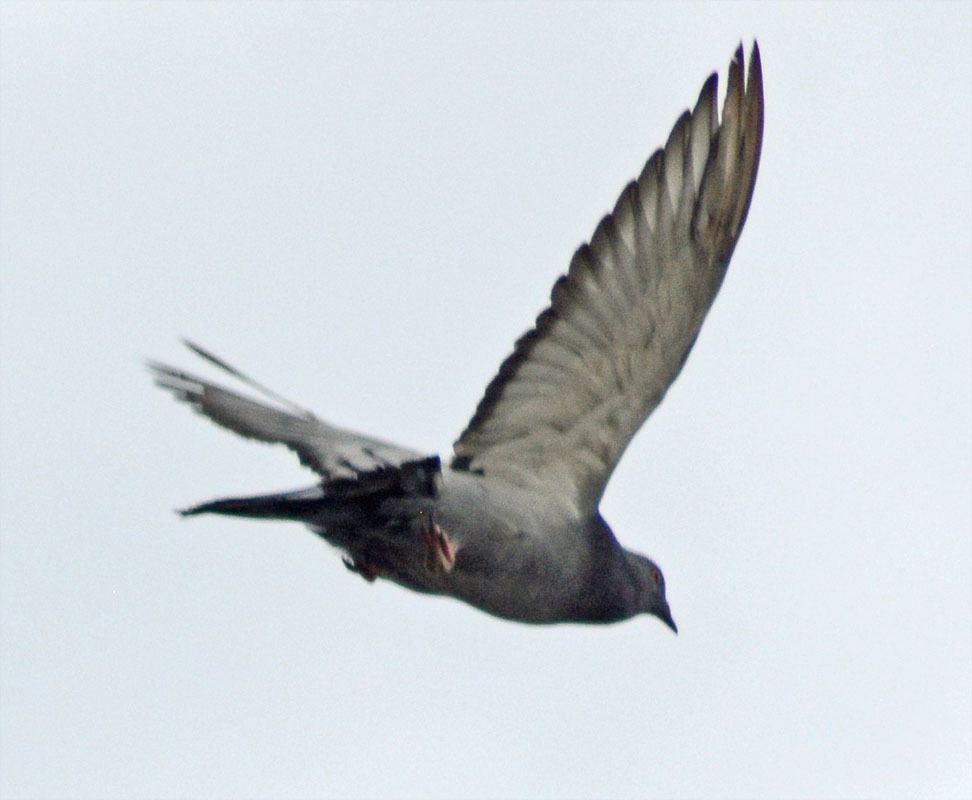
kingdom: Animalia
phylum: Chordata
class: Aves
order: Columbiformes
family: Columbidae
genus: Columba
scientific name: Columba livia
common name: Rock pigeon
